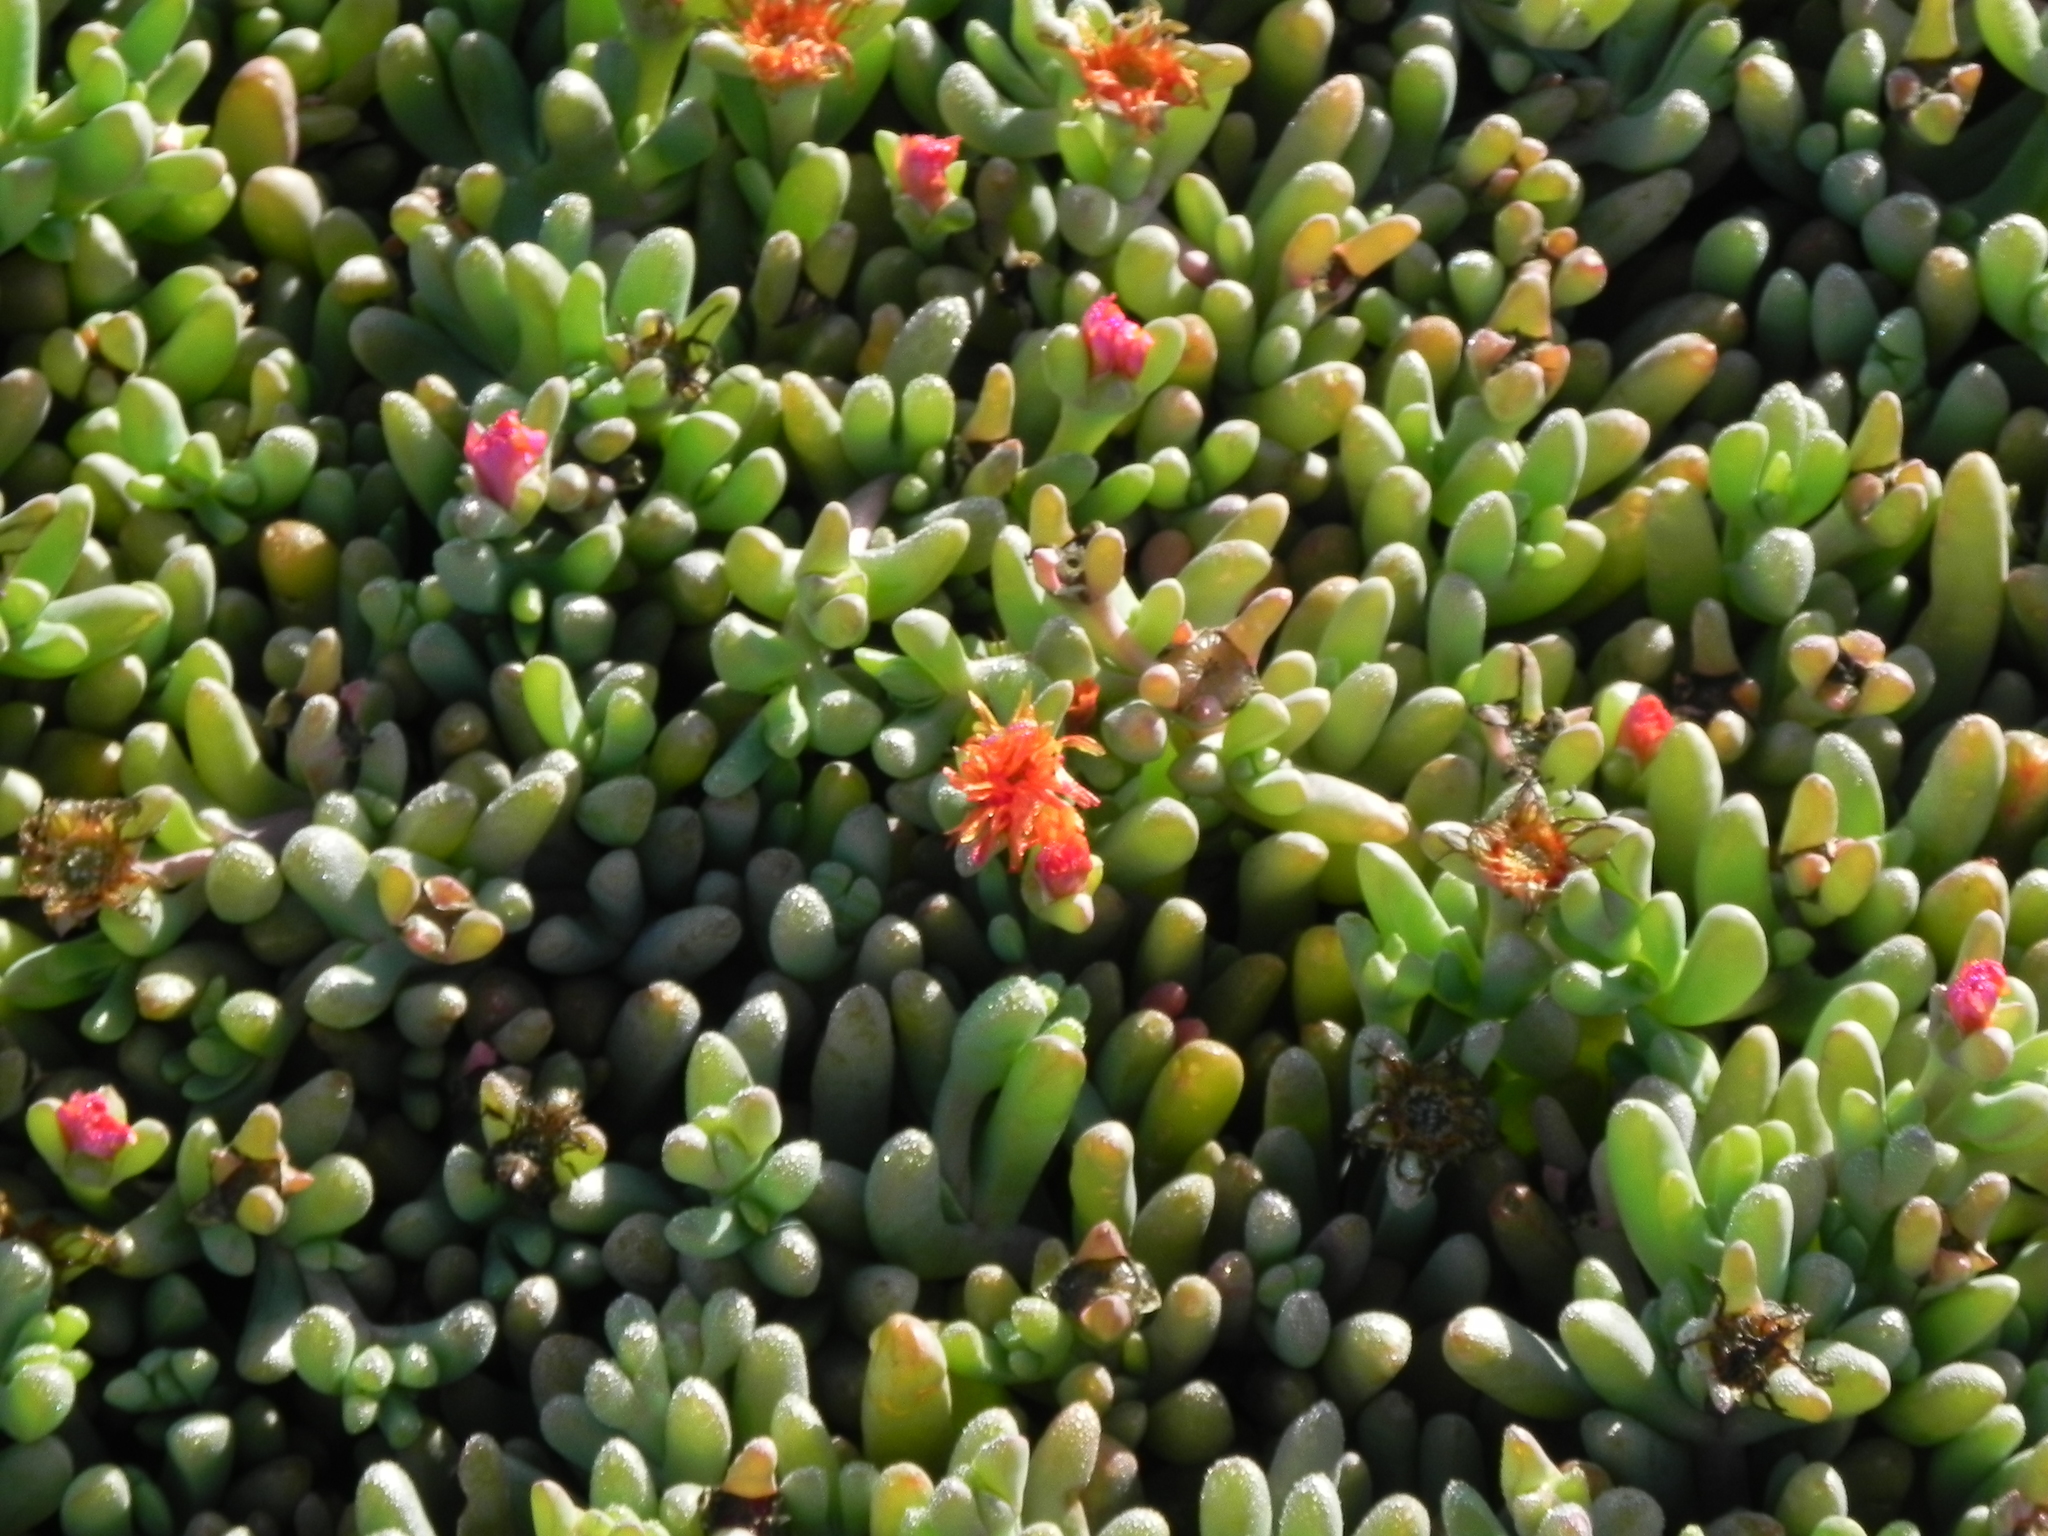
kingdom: Plantae
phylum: Tracheophyta
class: Magnoliopsida
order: Caryophyllales
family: Aizoaceae
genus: Malephora
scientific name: Malephora crocea
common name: Coppery mesemb
